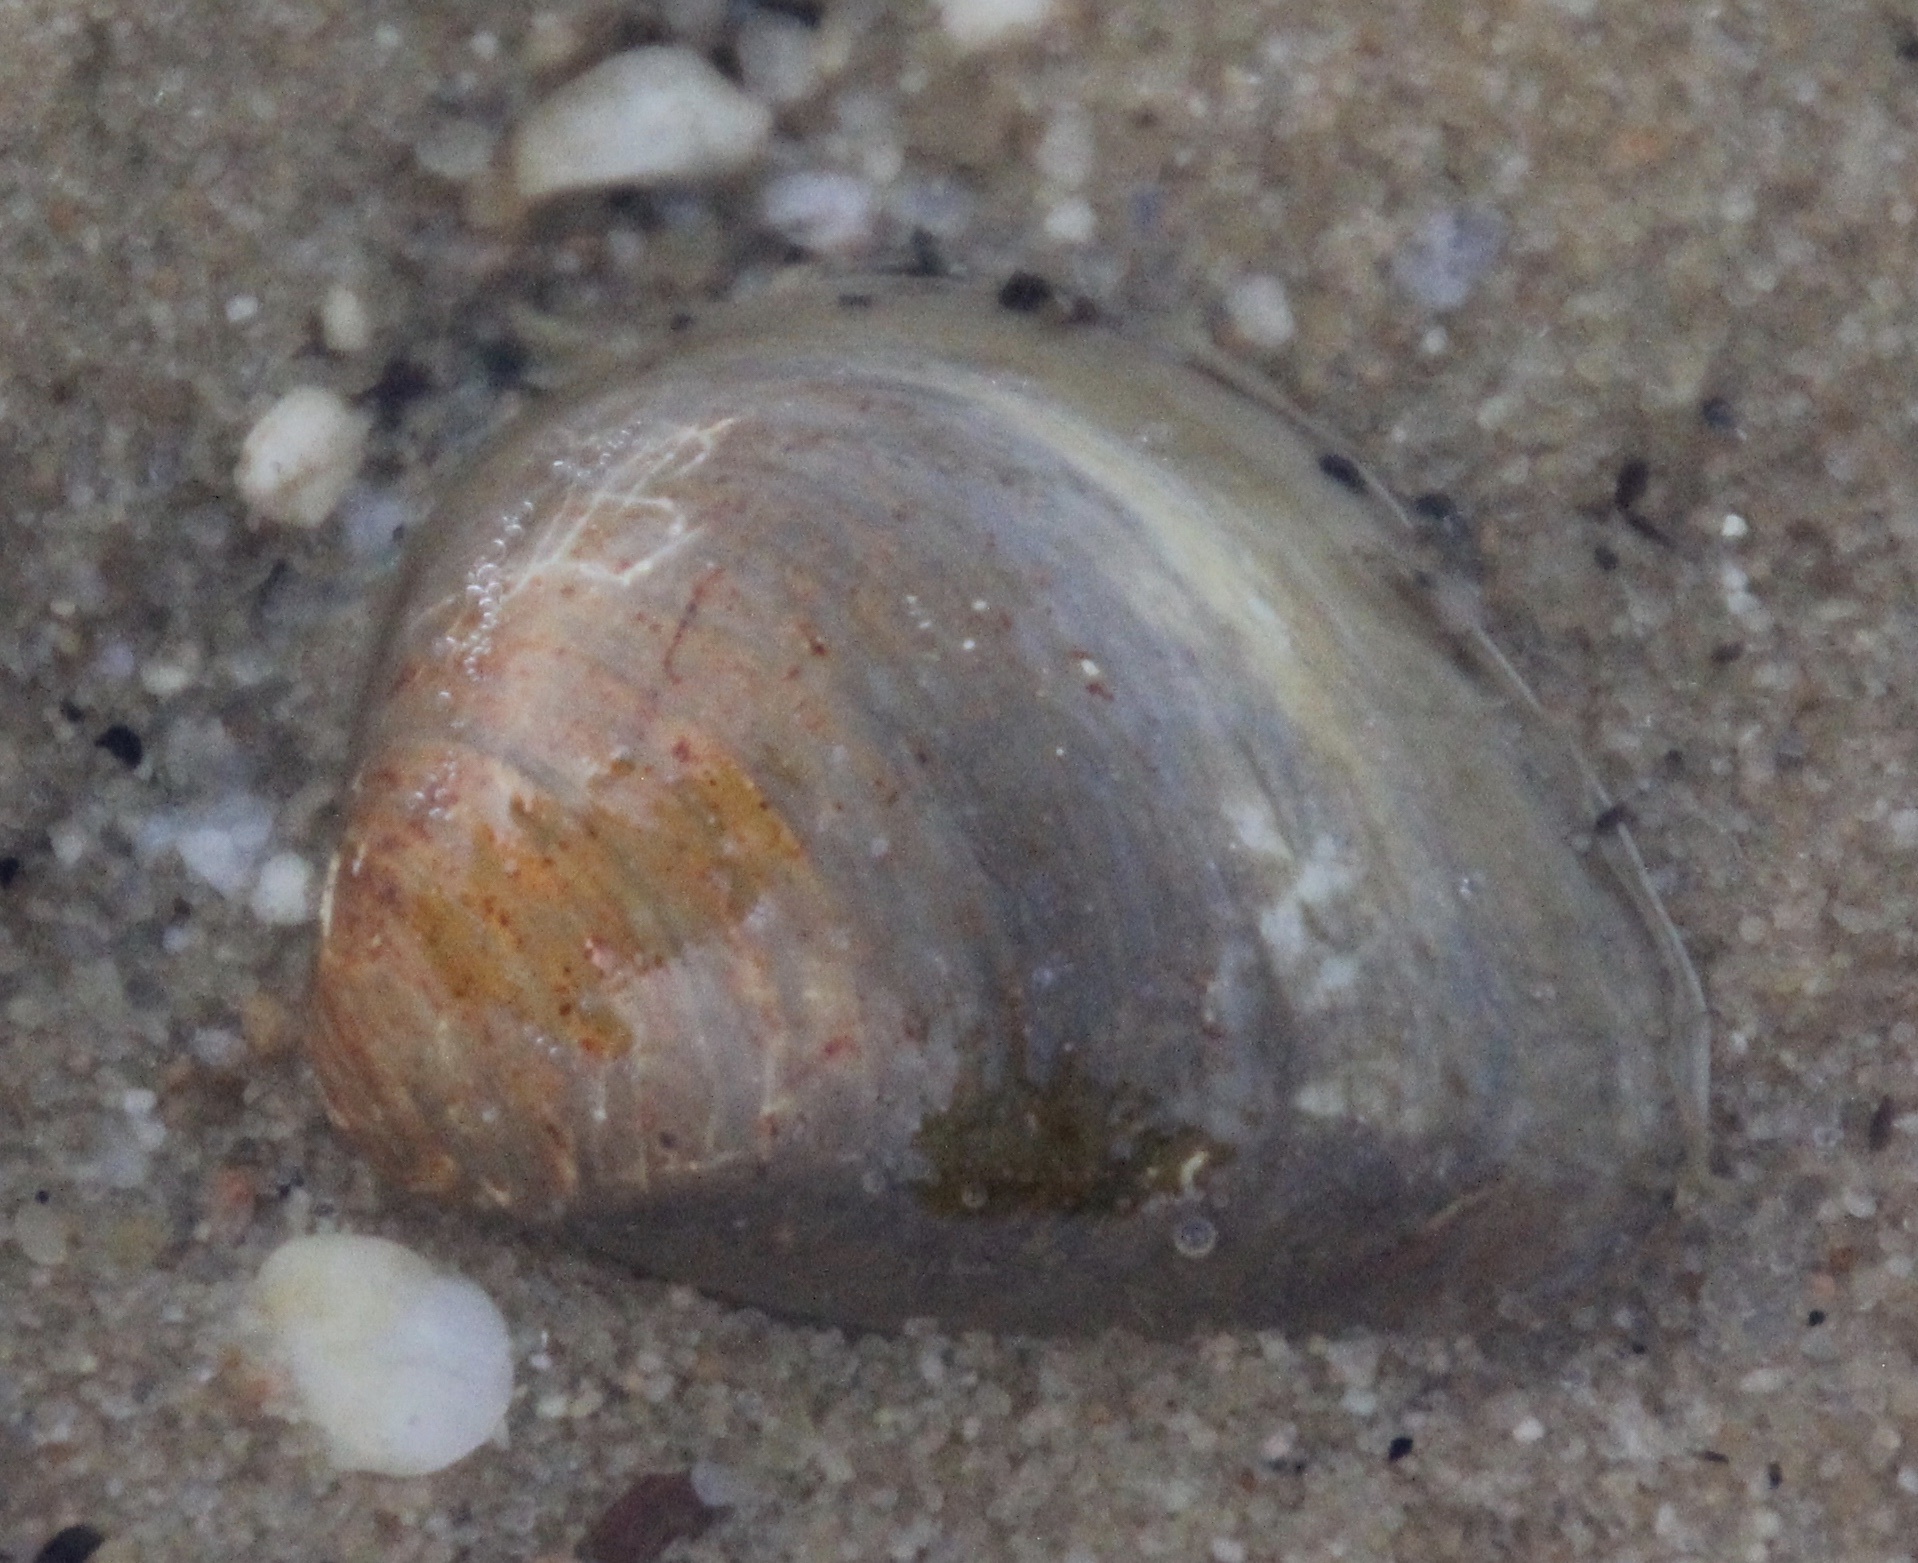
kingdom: Animalia
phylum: Mollusca
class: Bivalvia
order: Venerida
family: Mactridae
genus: Rangia
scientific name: Rangia cuneata
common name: Atlantic rangia
